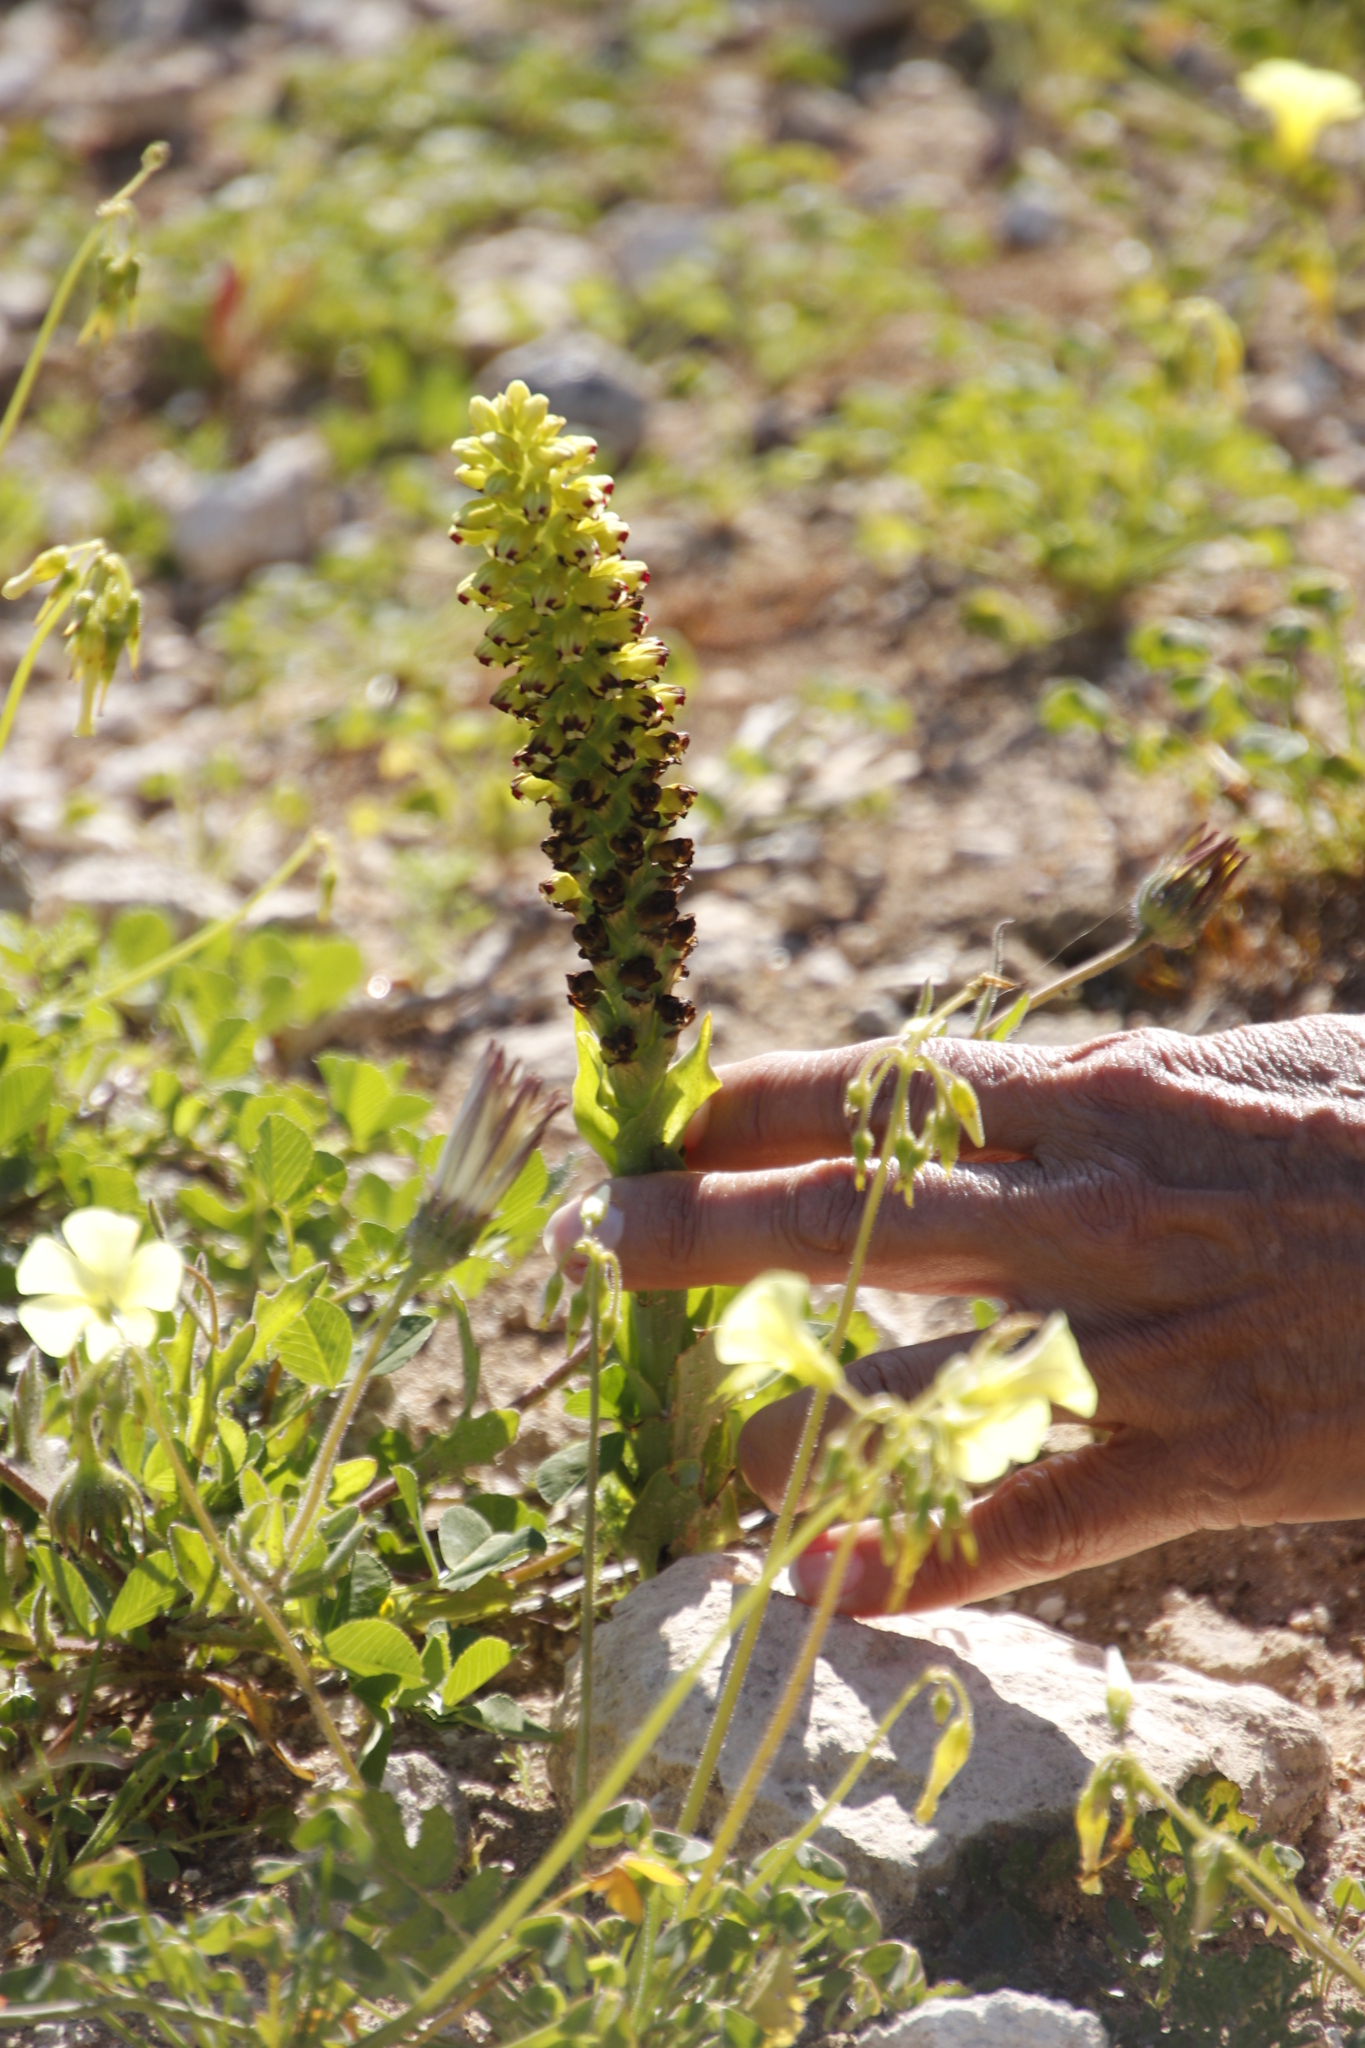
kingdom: Plantae
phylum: Tracheophyta
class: Liliopsida
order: Asparagales
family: Orchidaceae
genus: Corycium
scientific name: Corycium orobanchoides
